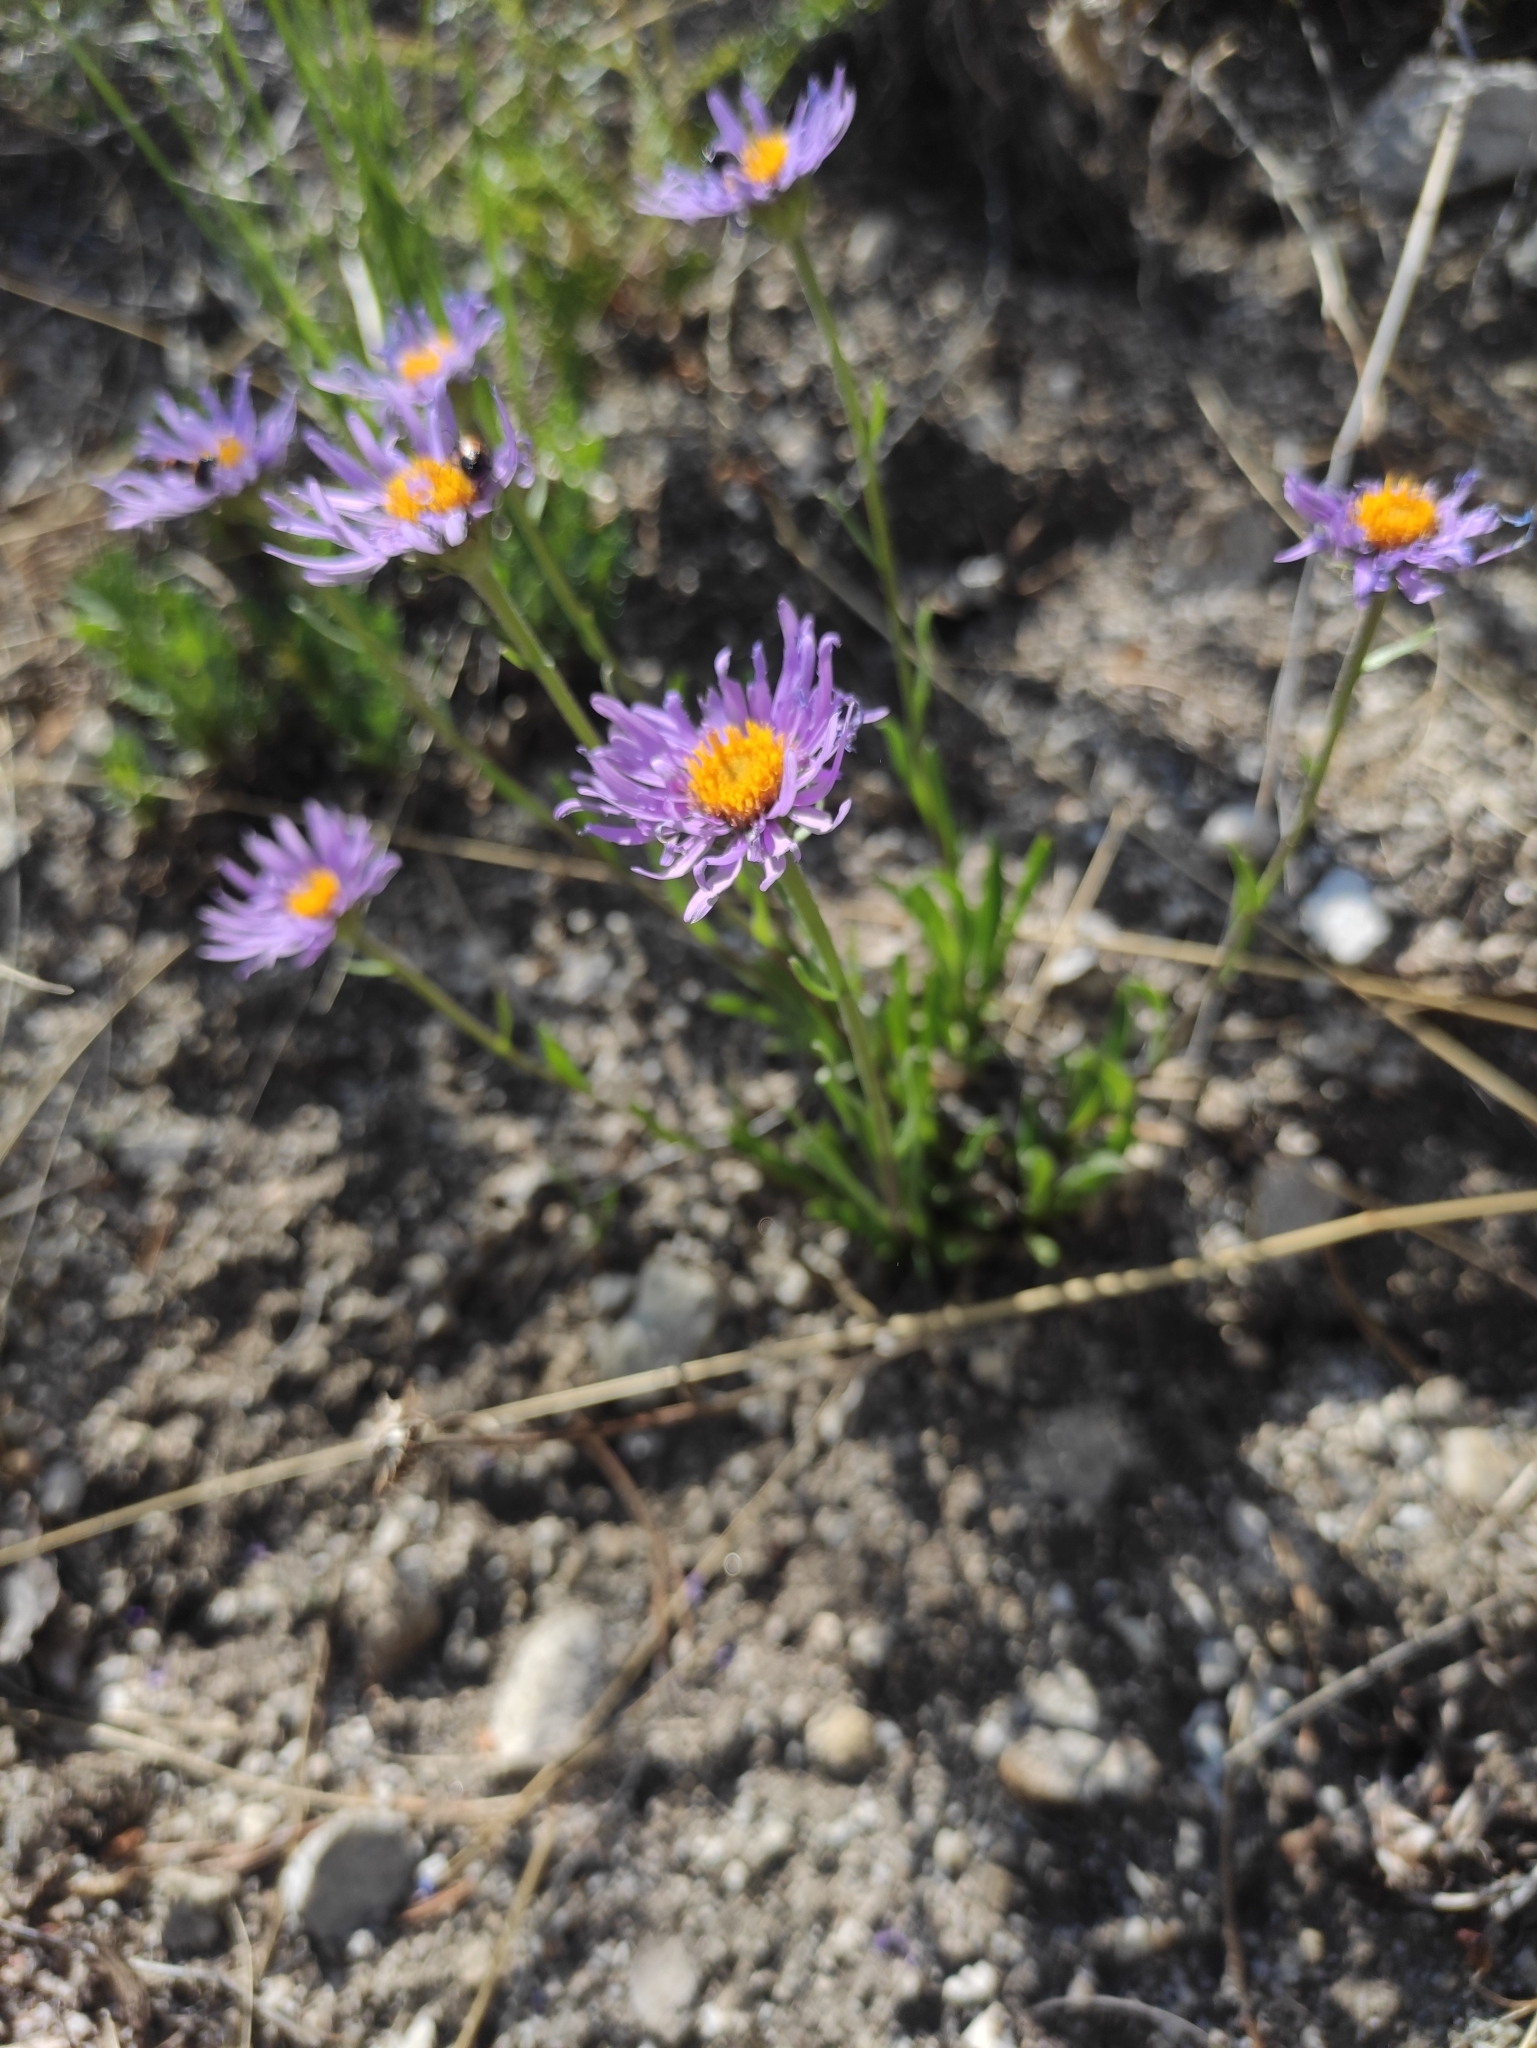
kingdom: Plantae
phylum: Tracheophyta
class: Magnoliopsida
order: Asterales
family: Asteraceae
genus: Aster
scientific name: Aster alpinus
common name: Alpine aster
